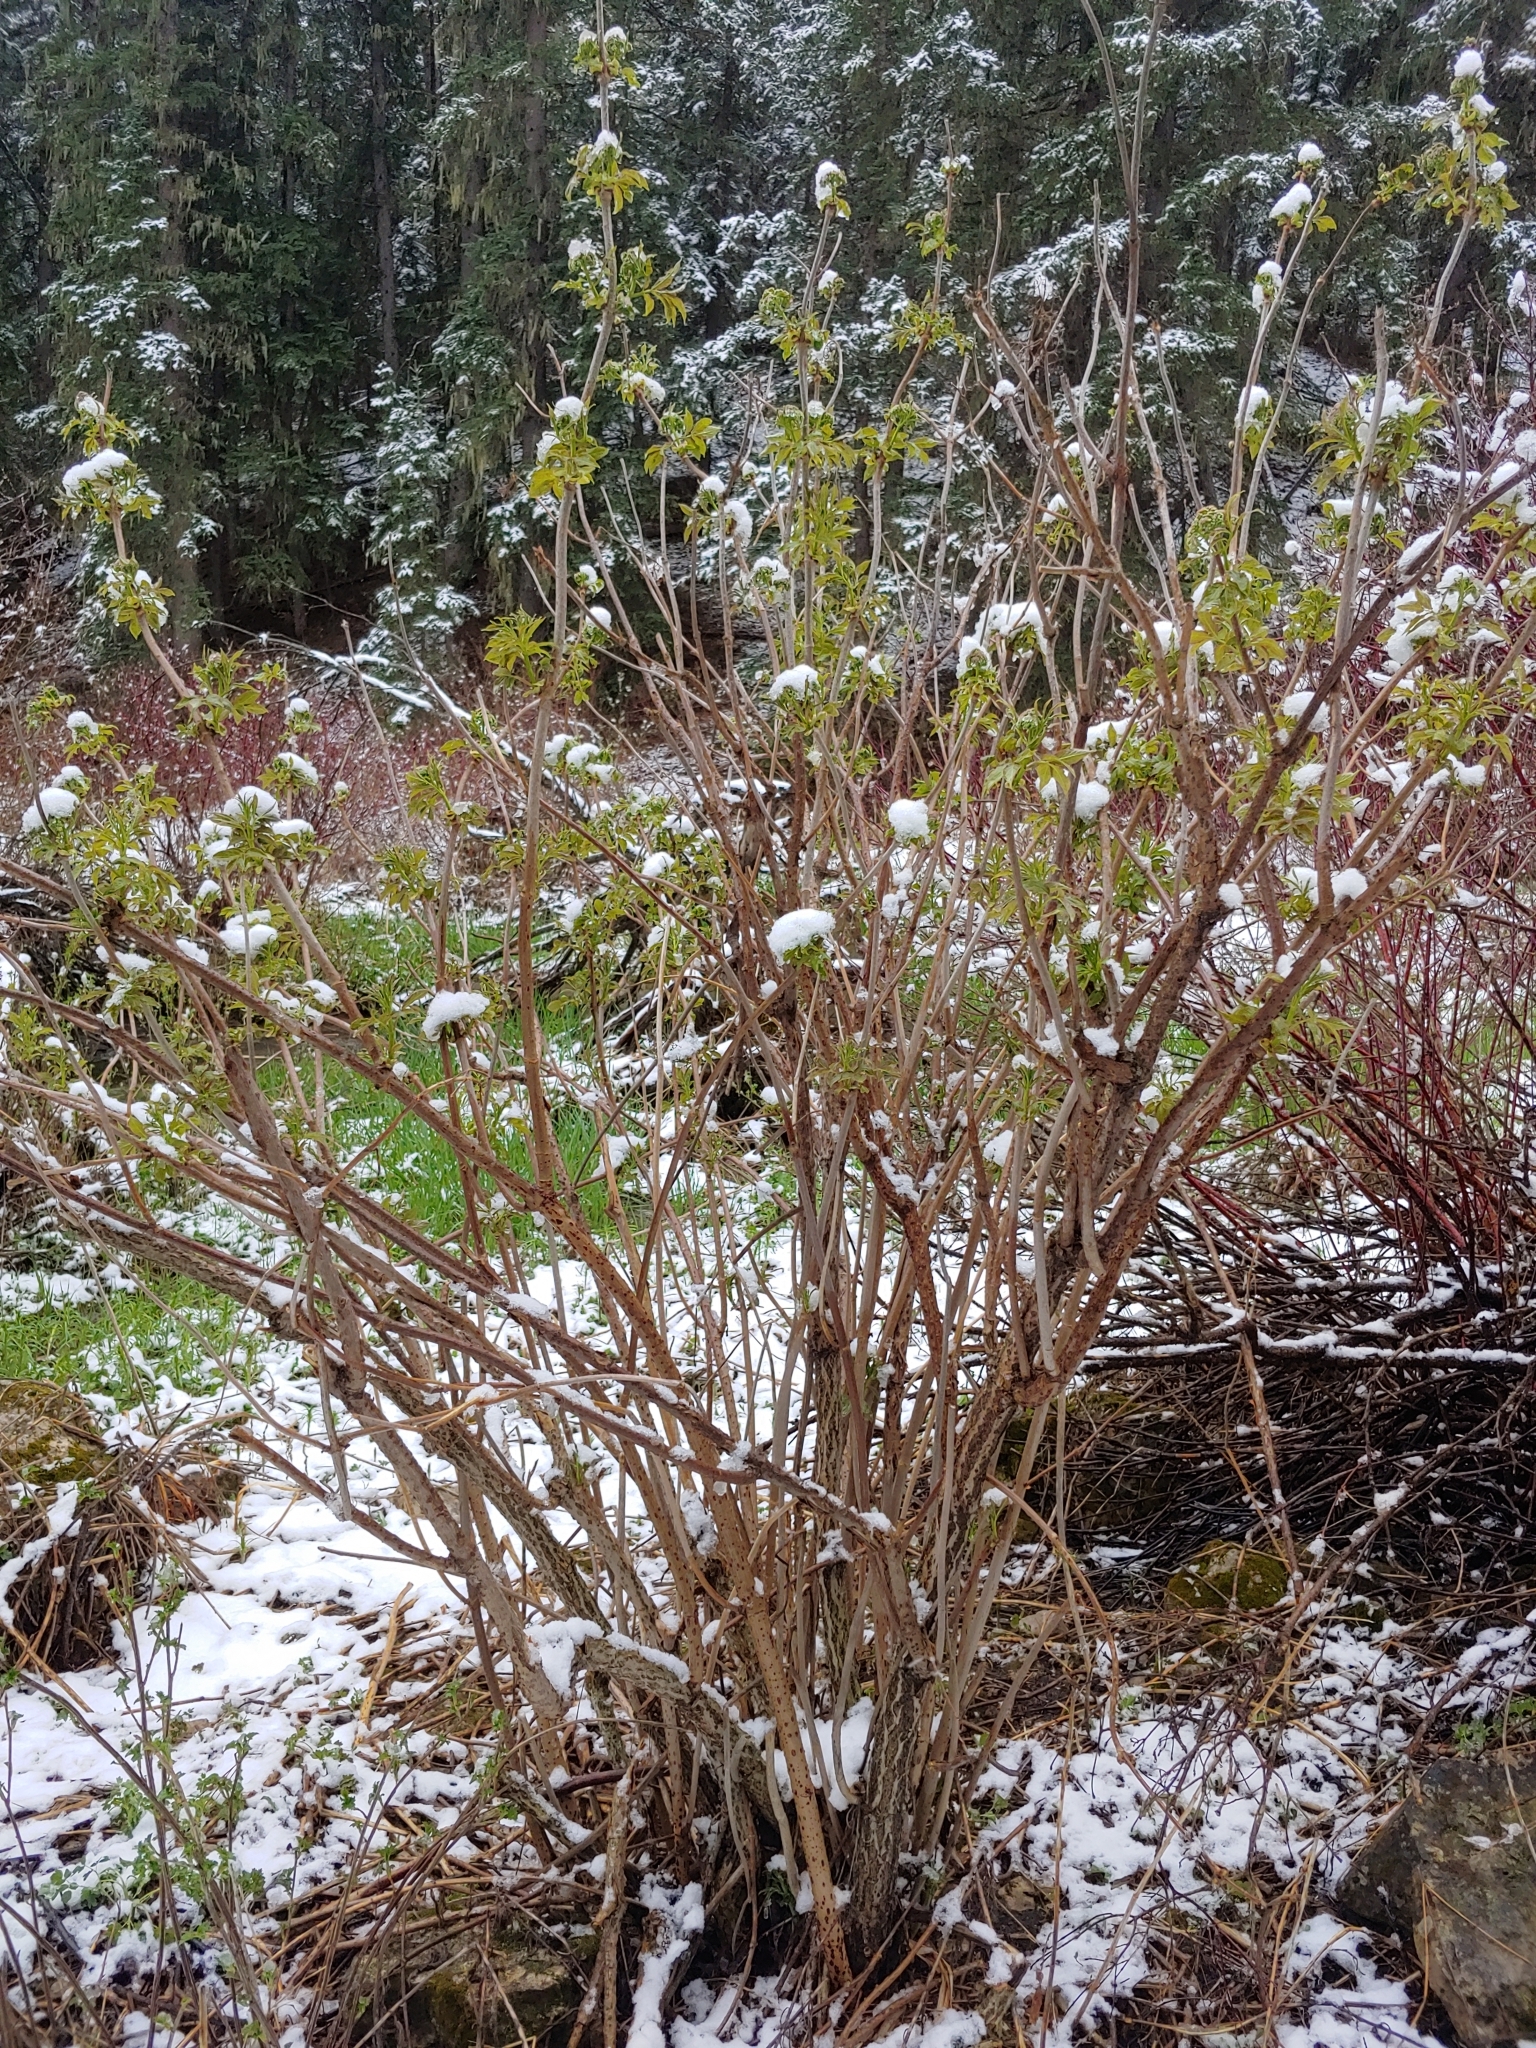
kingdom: Plantae
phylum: Tracheophyta
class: Magnoliopsida
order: Dipsacales
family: Viburnaceae
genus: Sambucus
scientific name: Sambucus racemosa
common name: Red-berried elder
